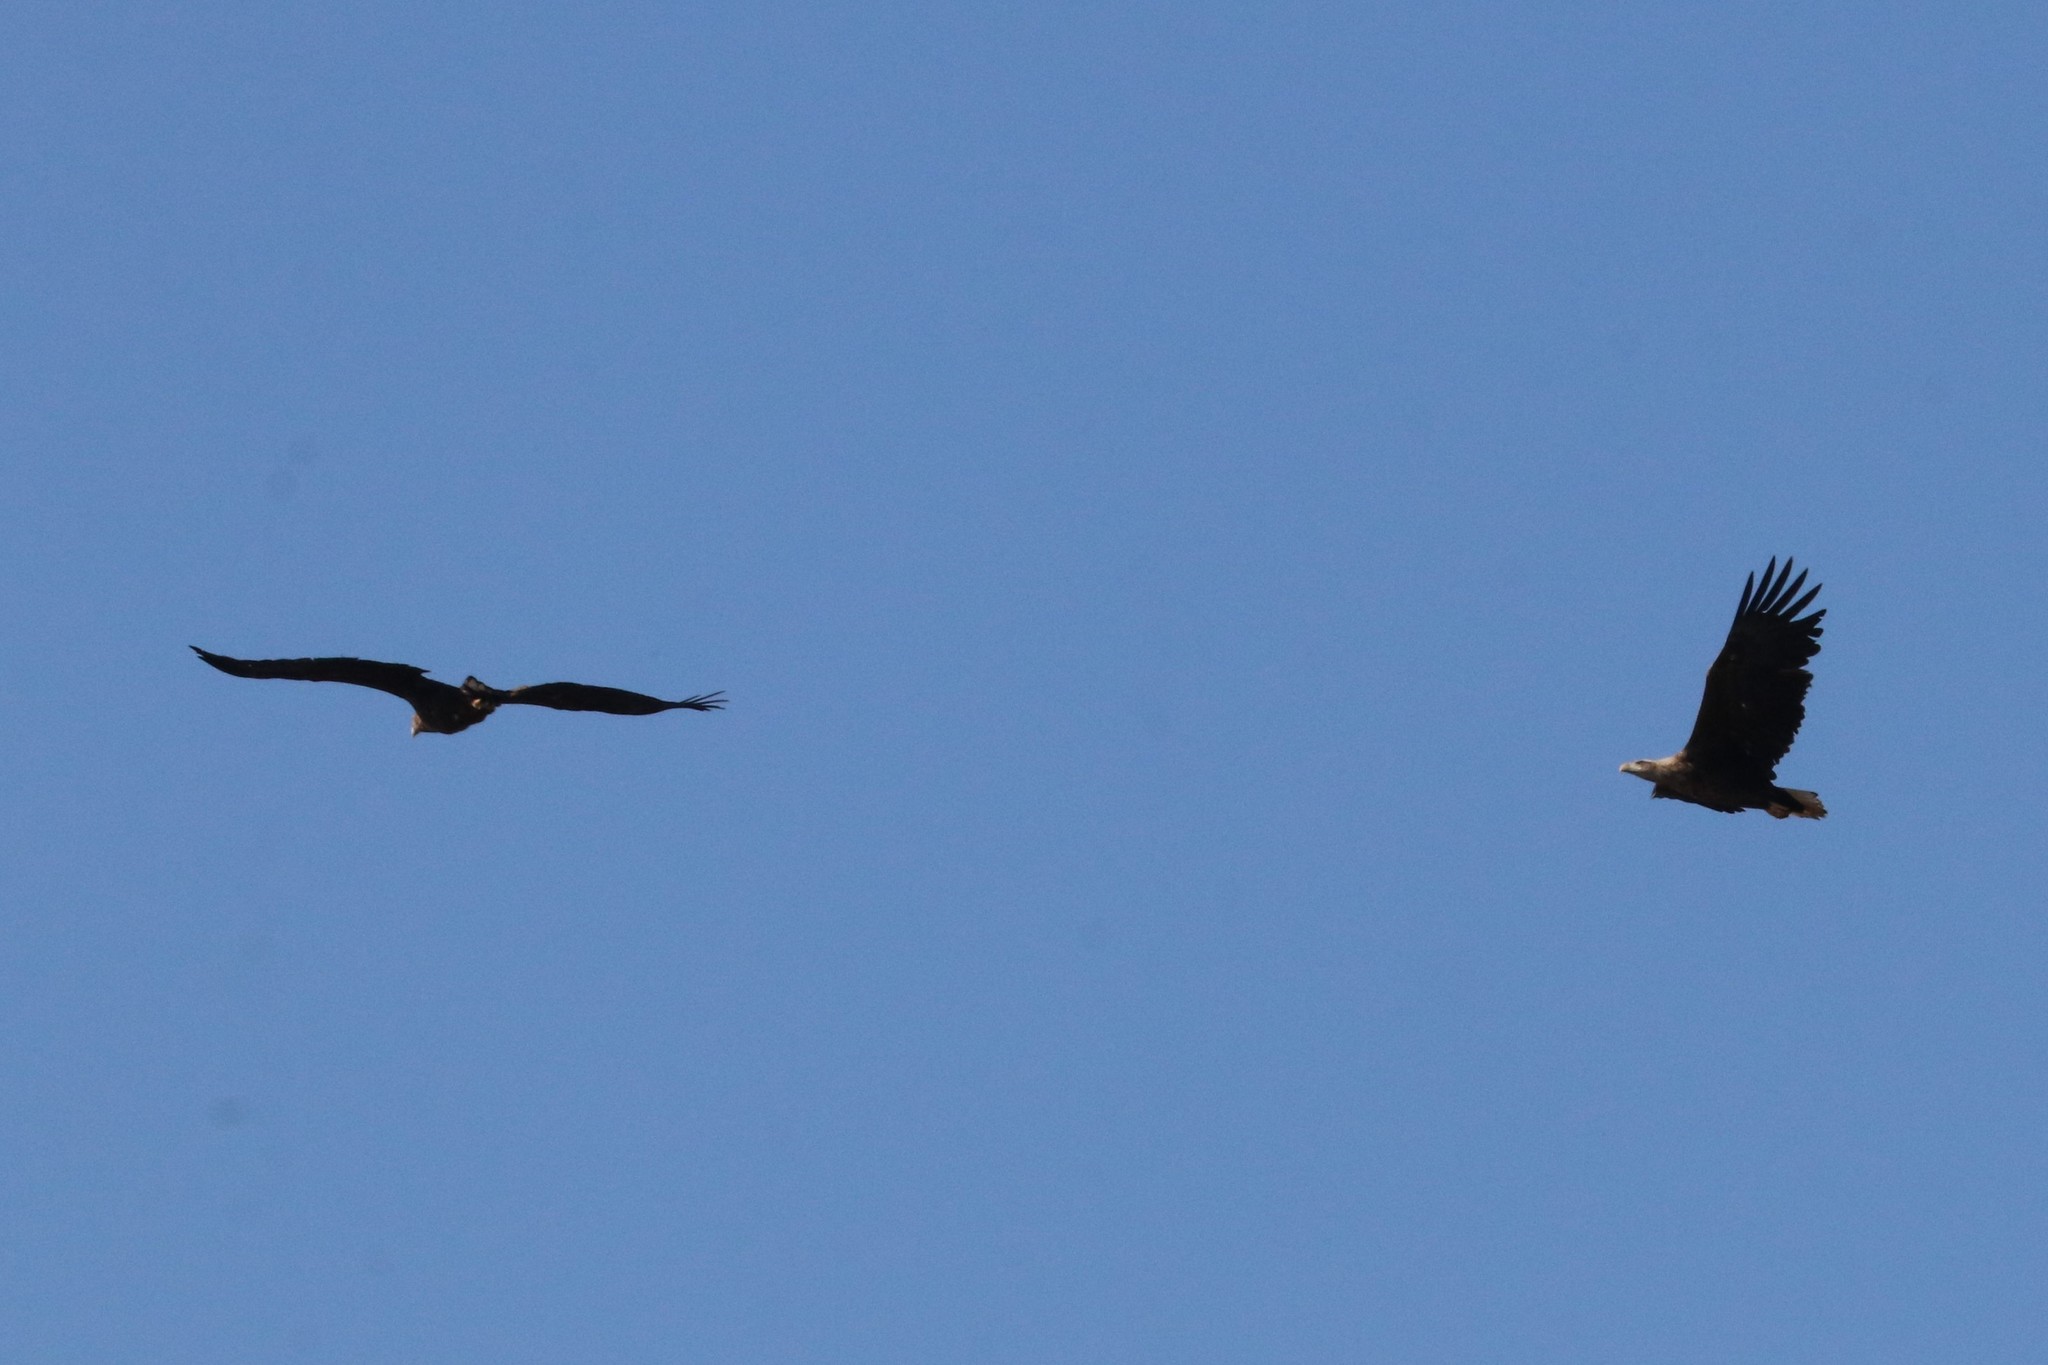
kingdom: Animalia
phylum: Chordata
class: Aves
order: Accipitriformes
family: Accipitridae
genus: Haliaeetus
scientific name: Haliaeetus albicilla
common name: White-tailed eagle
